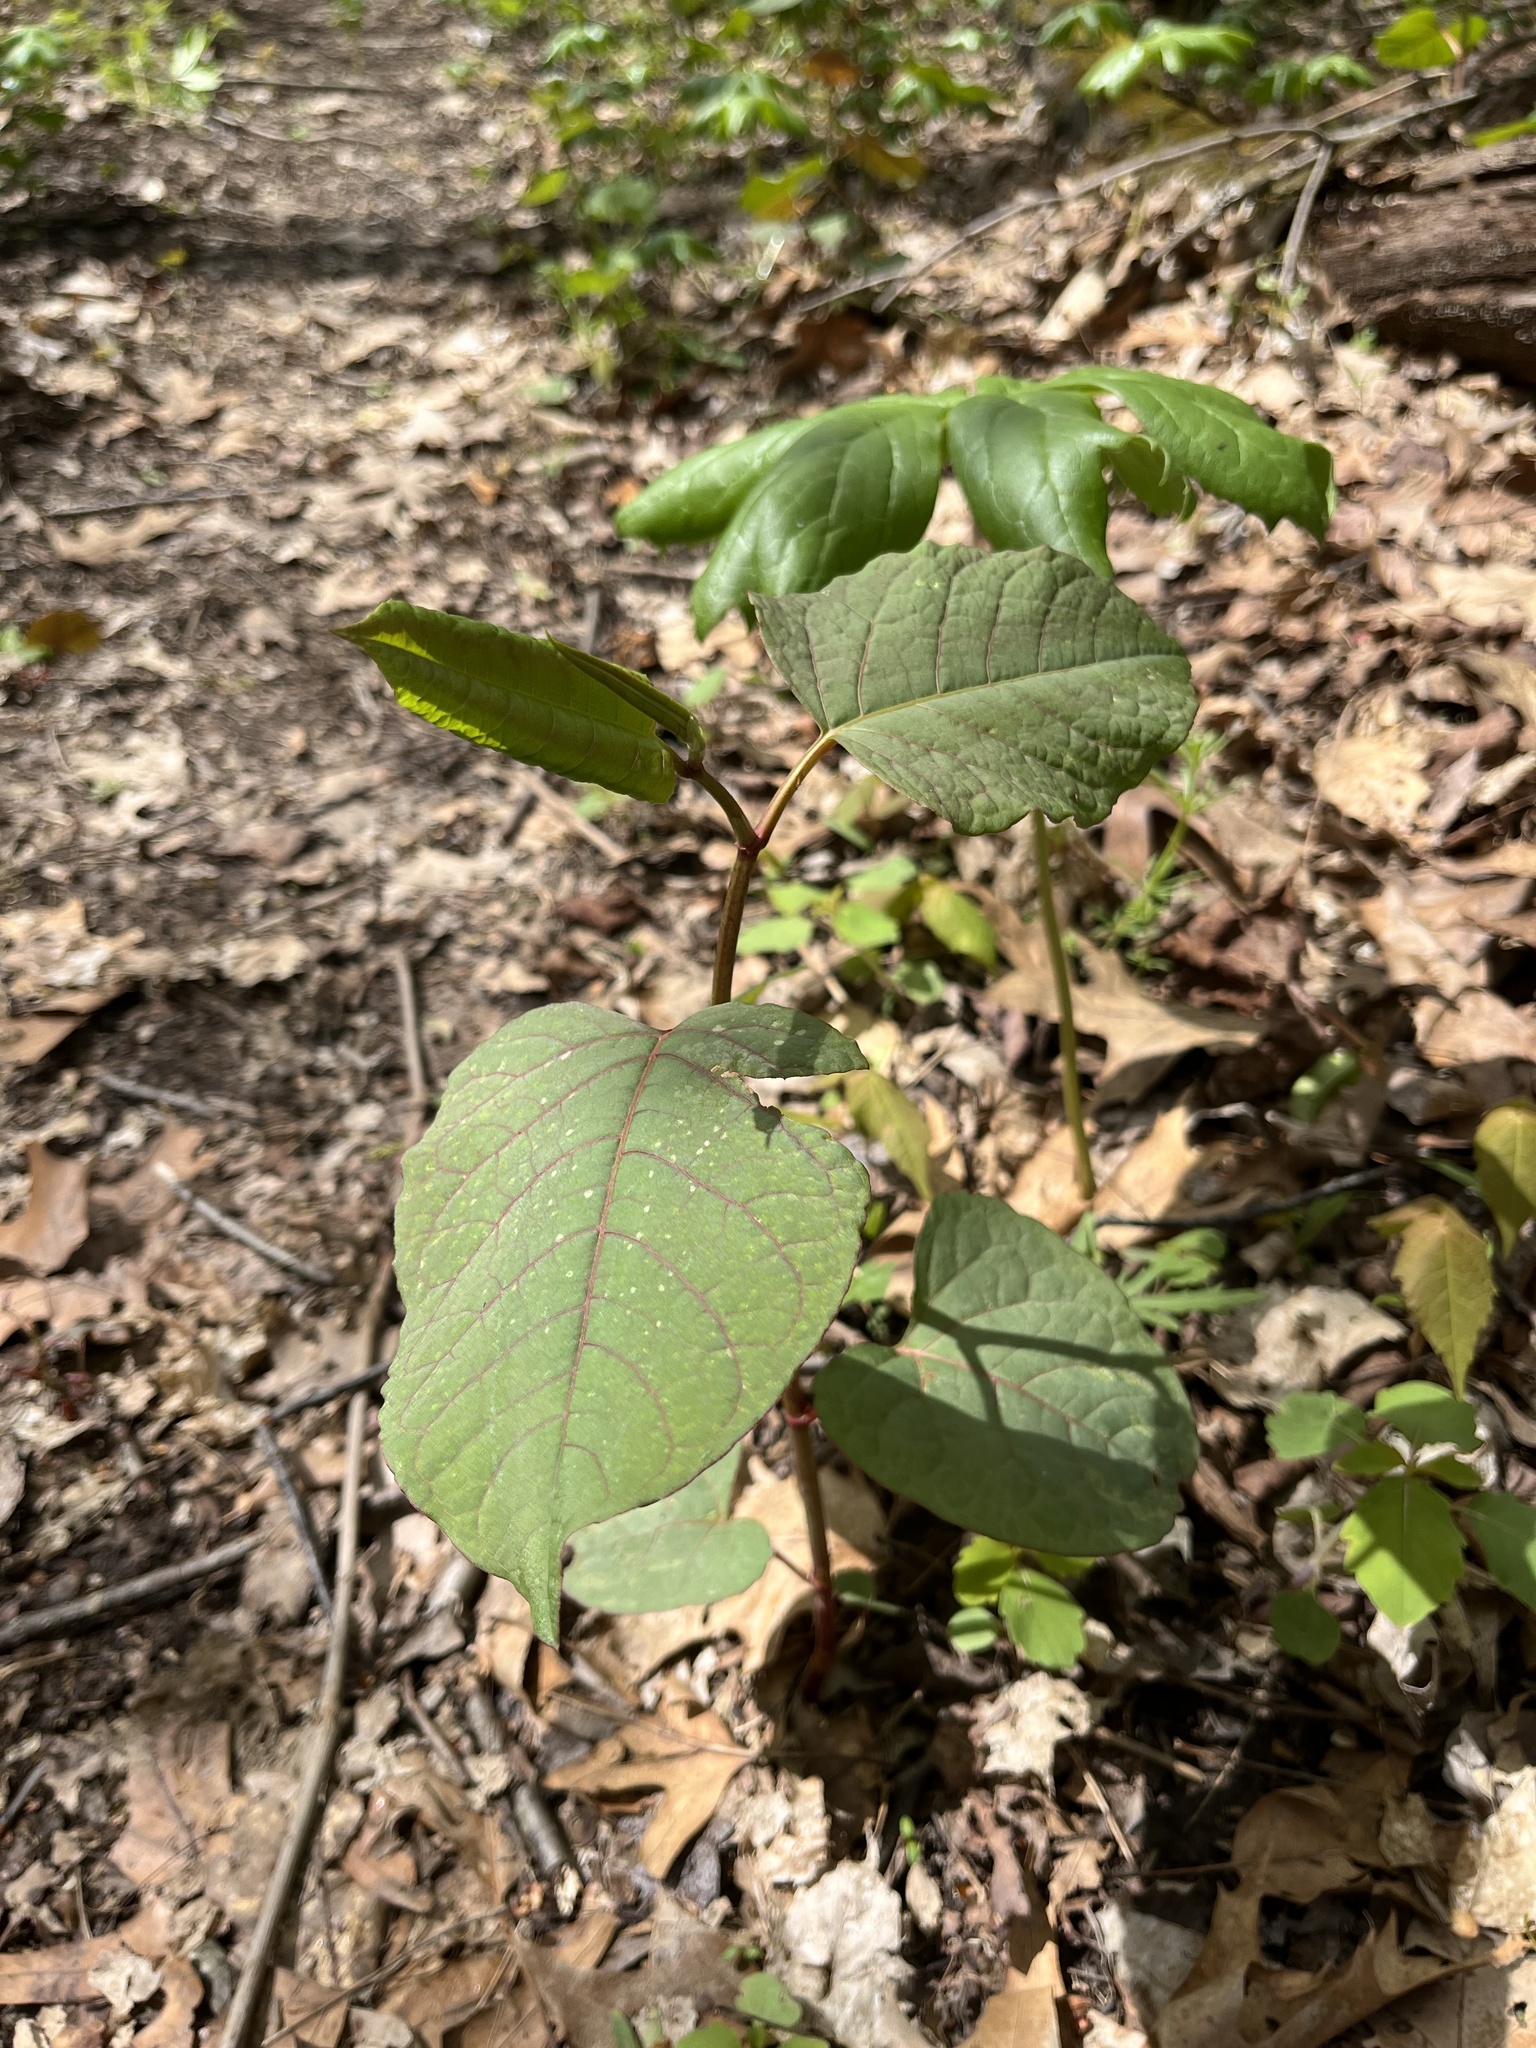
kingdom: Plantae
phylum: Tracheophyta
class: Magnoliopsida
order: Caryophyllales
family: Polygonaceae
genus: Reynoutria
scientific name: Reynoutria japonica
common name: Japanese knotweed
